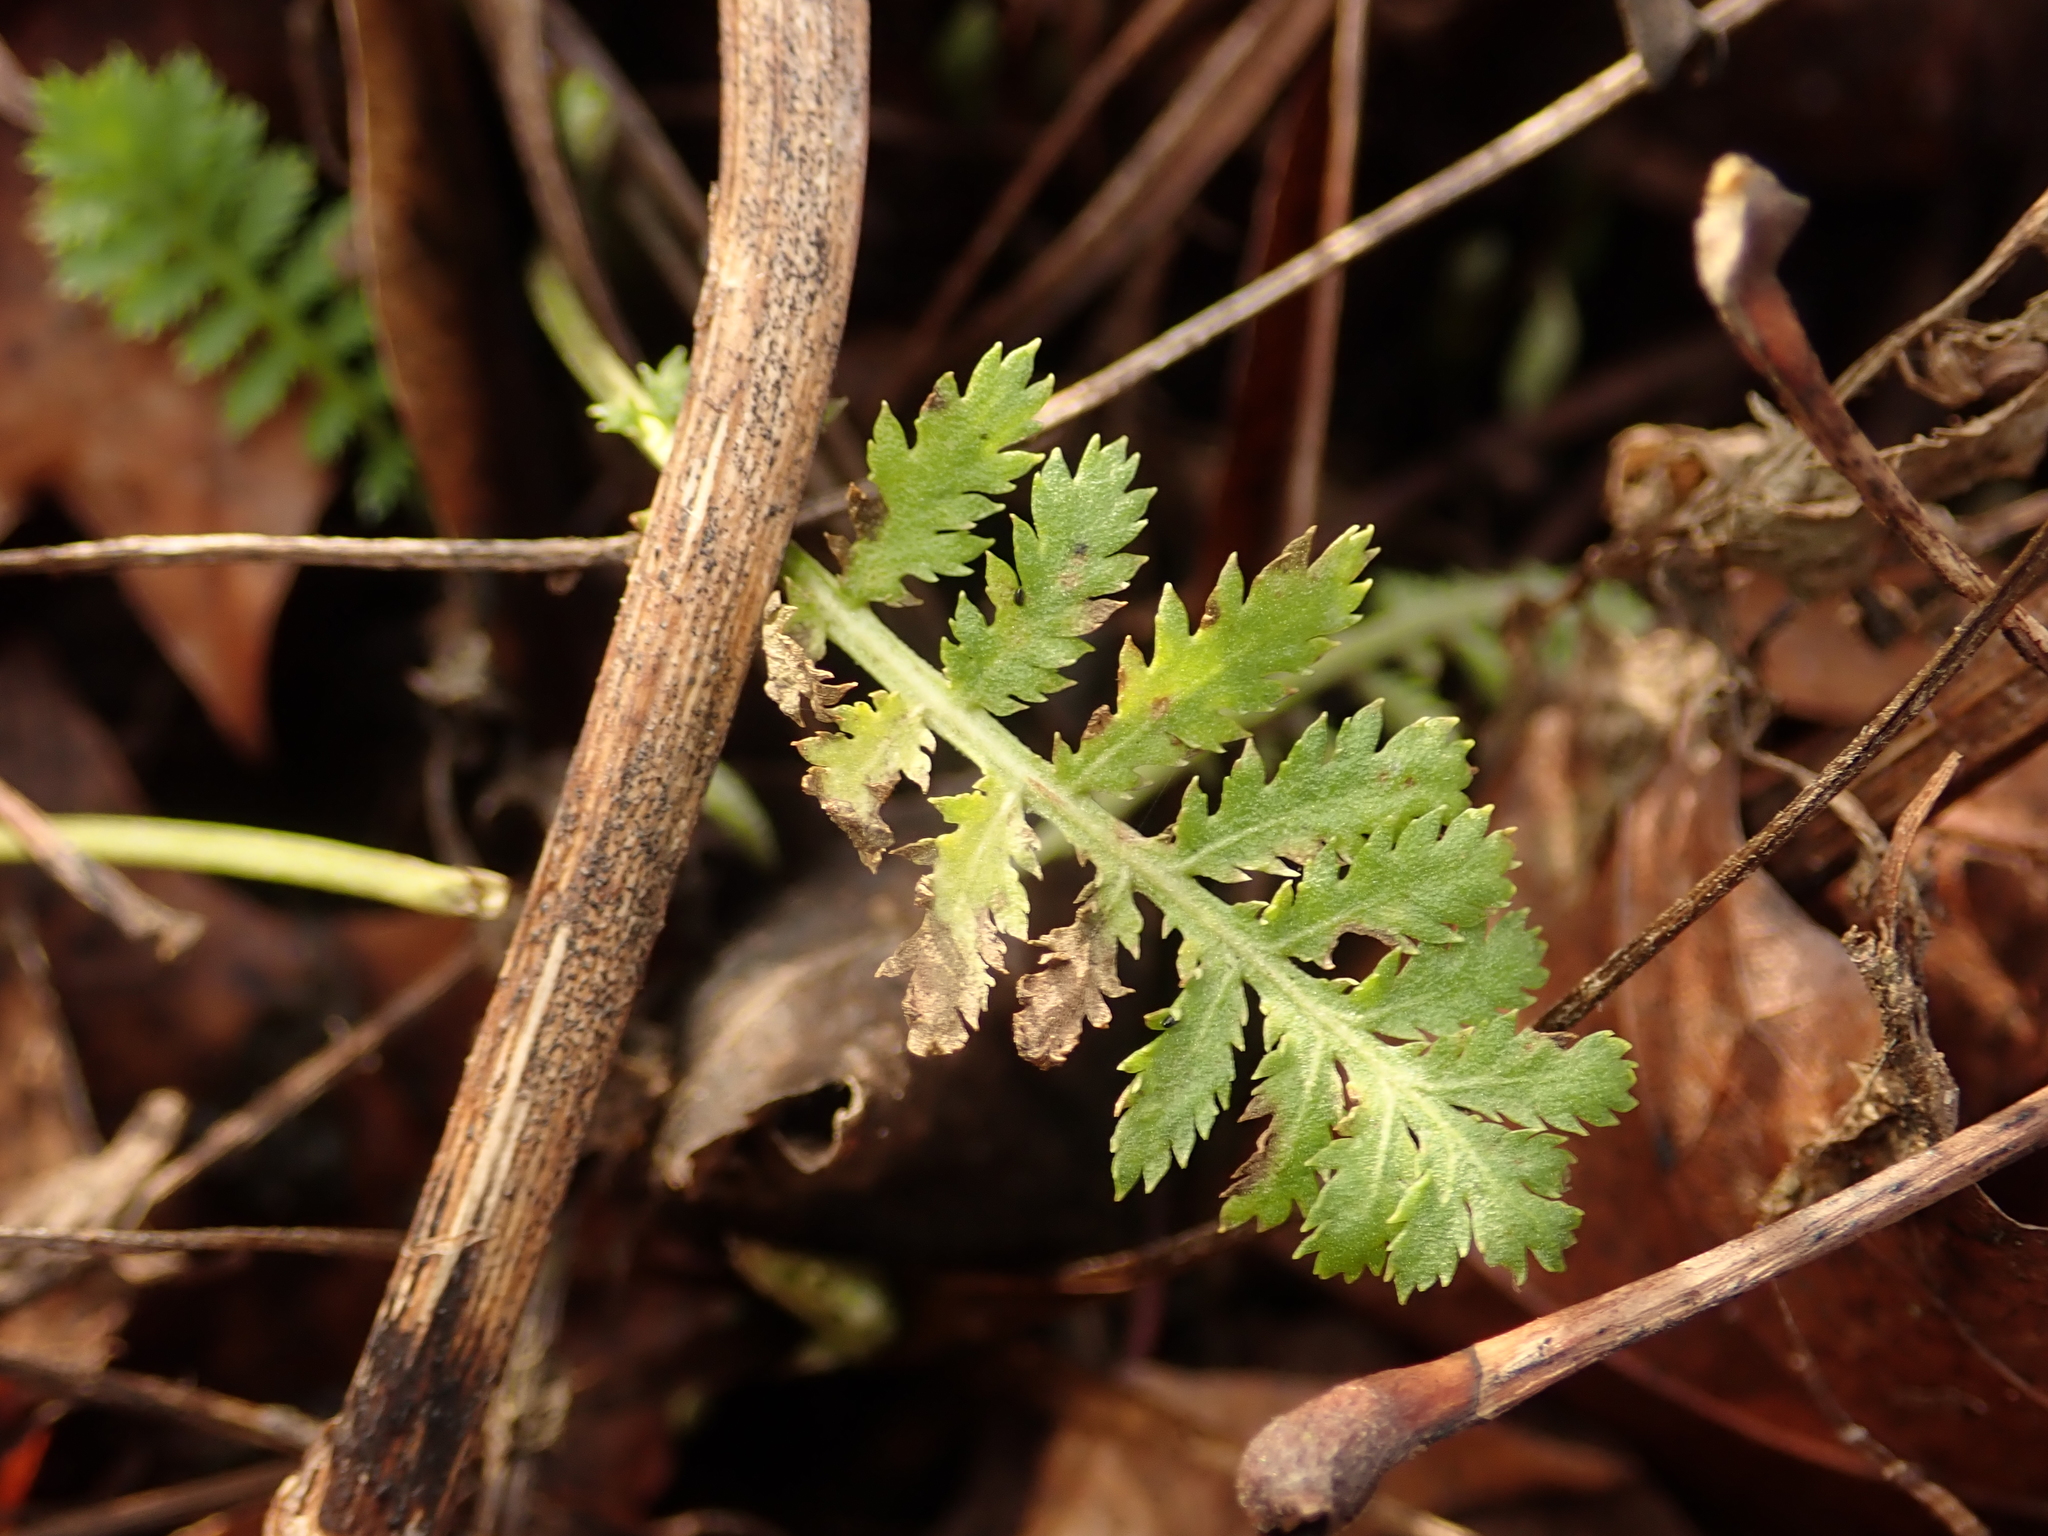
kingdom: Plantae
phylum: Tracheophyta
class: Magnoliopsida
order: Asterales
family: Asteraceae
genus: Tanacetum
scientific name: Tanacetum vulgare
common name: Common tansy
